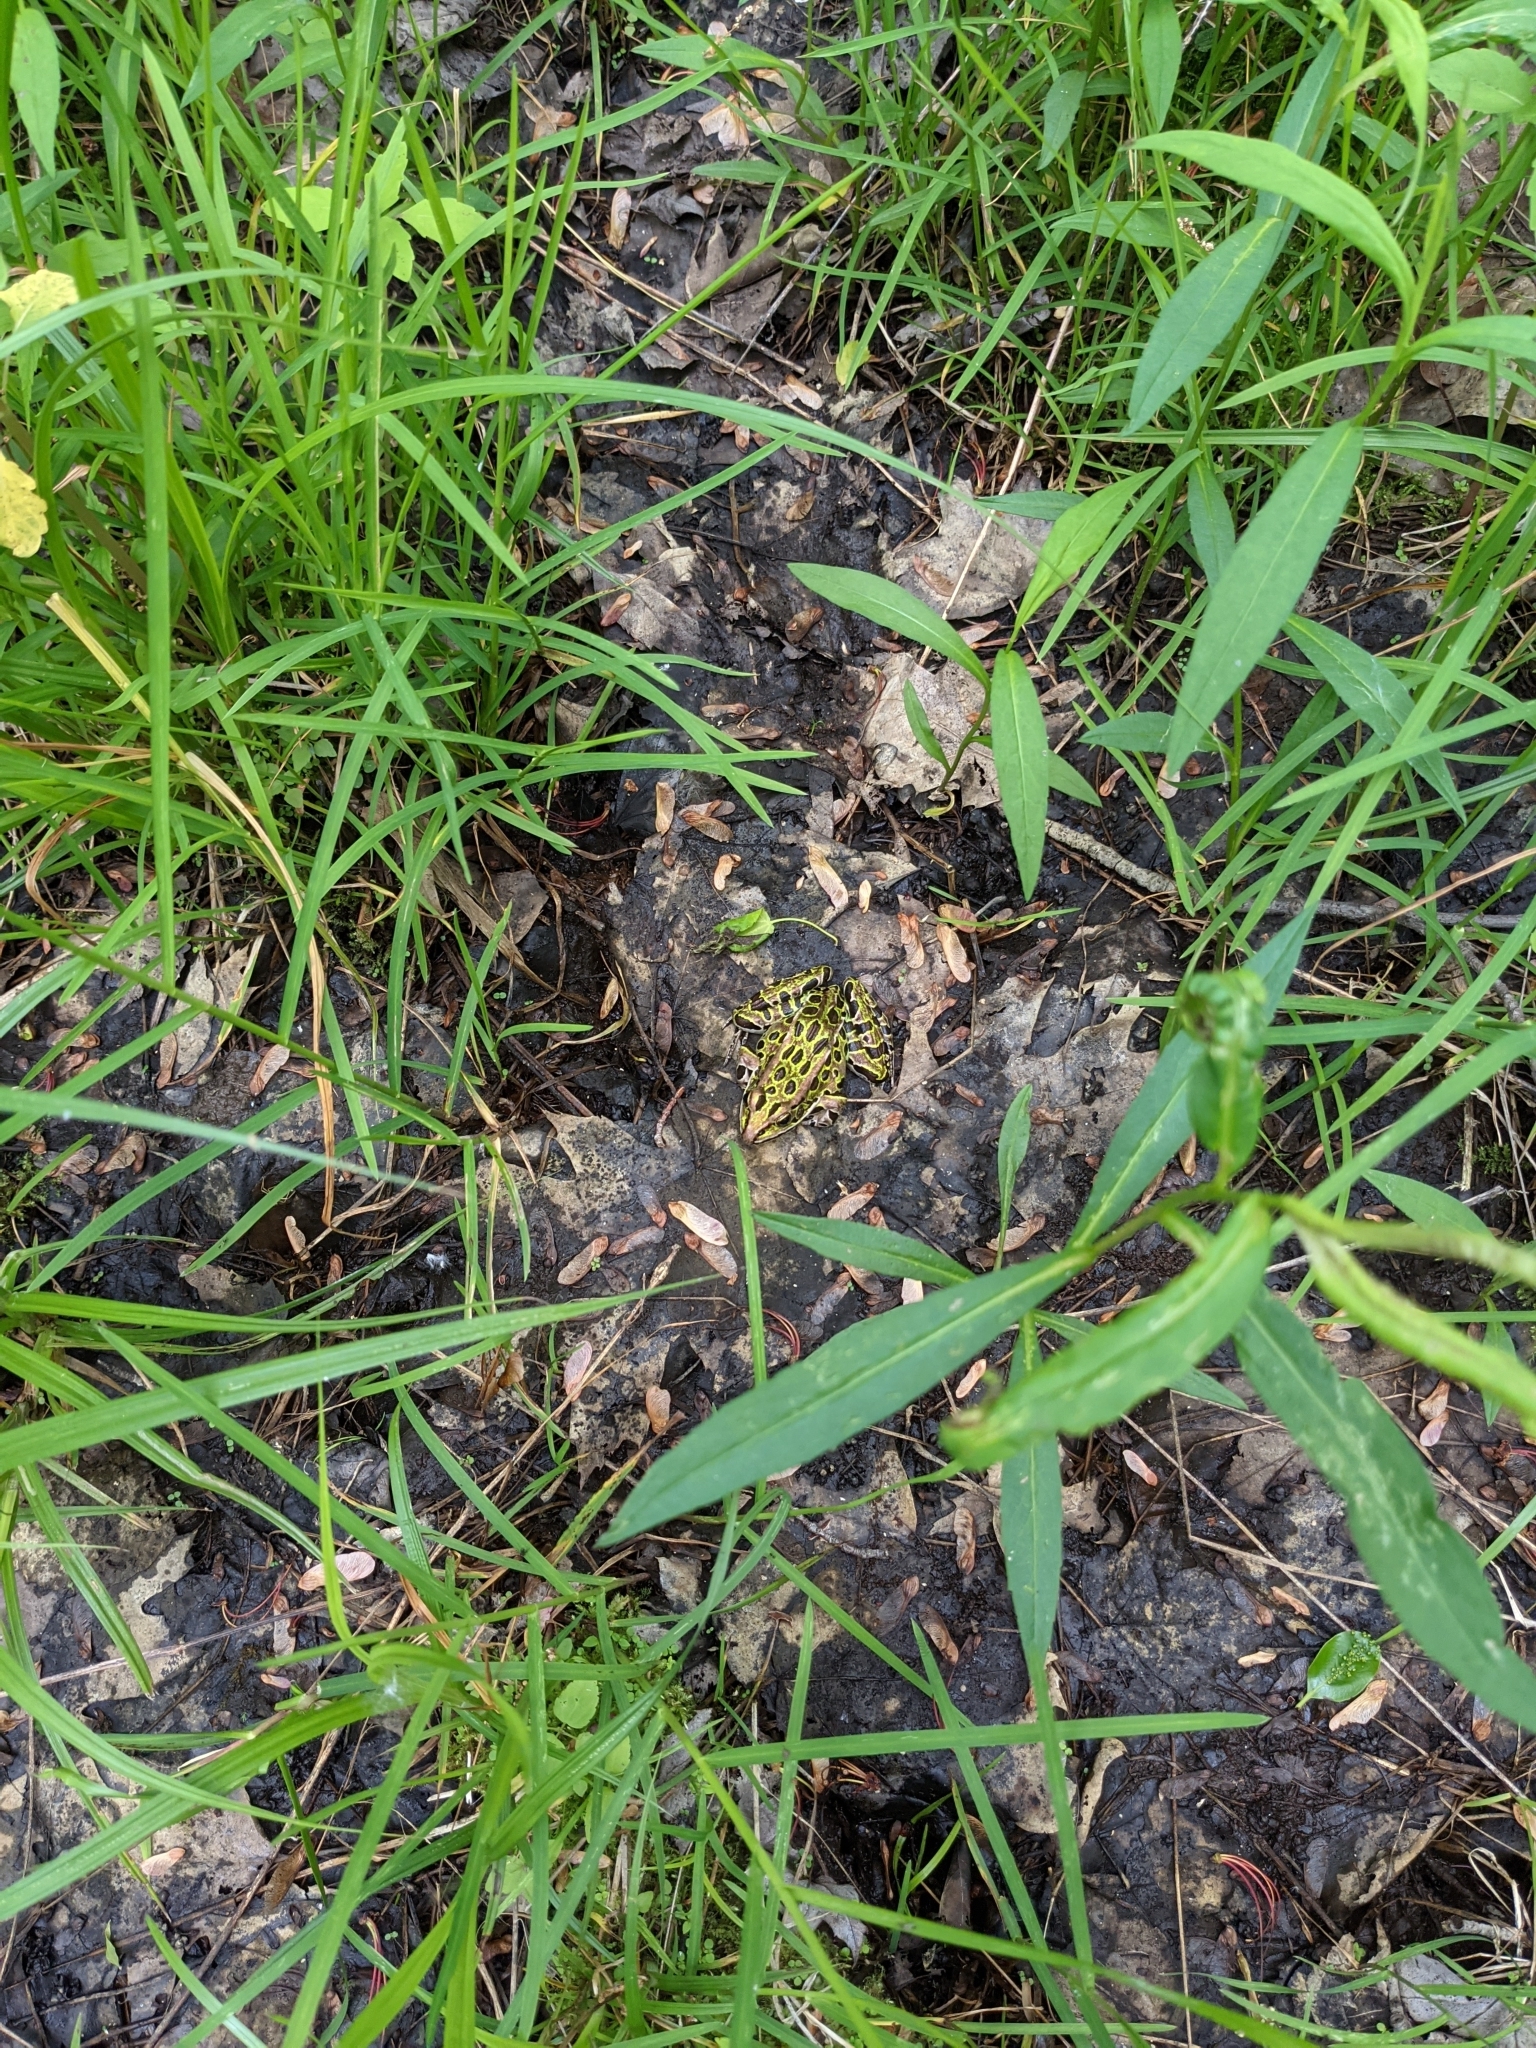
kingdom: Animalia
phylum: Chordata
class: Amphibia
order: Anura
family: Ranidae
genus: Lithobates
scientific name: Lithobates pipiens
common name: Northern leopard frog
